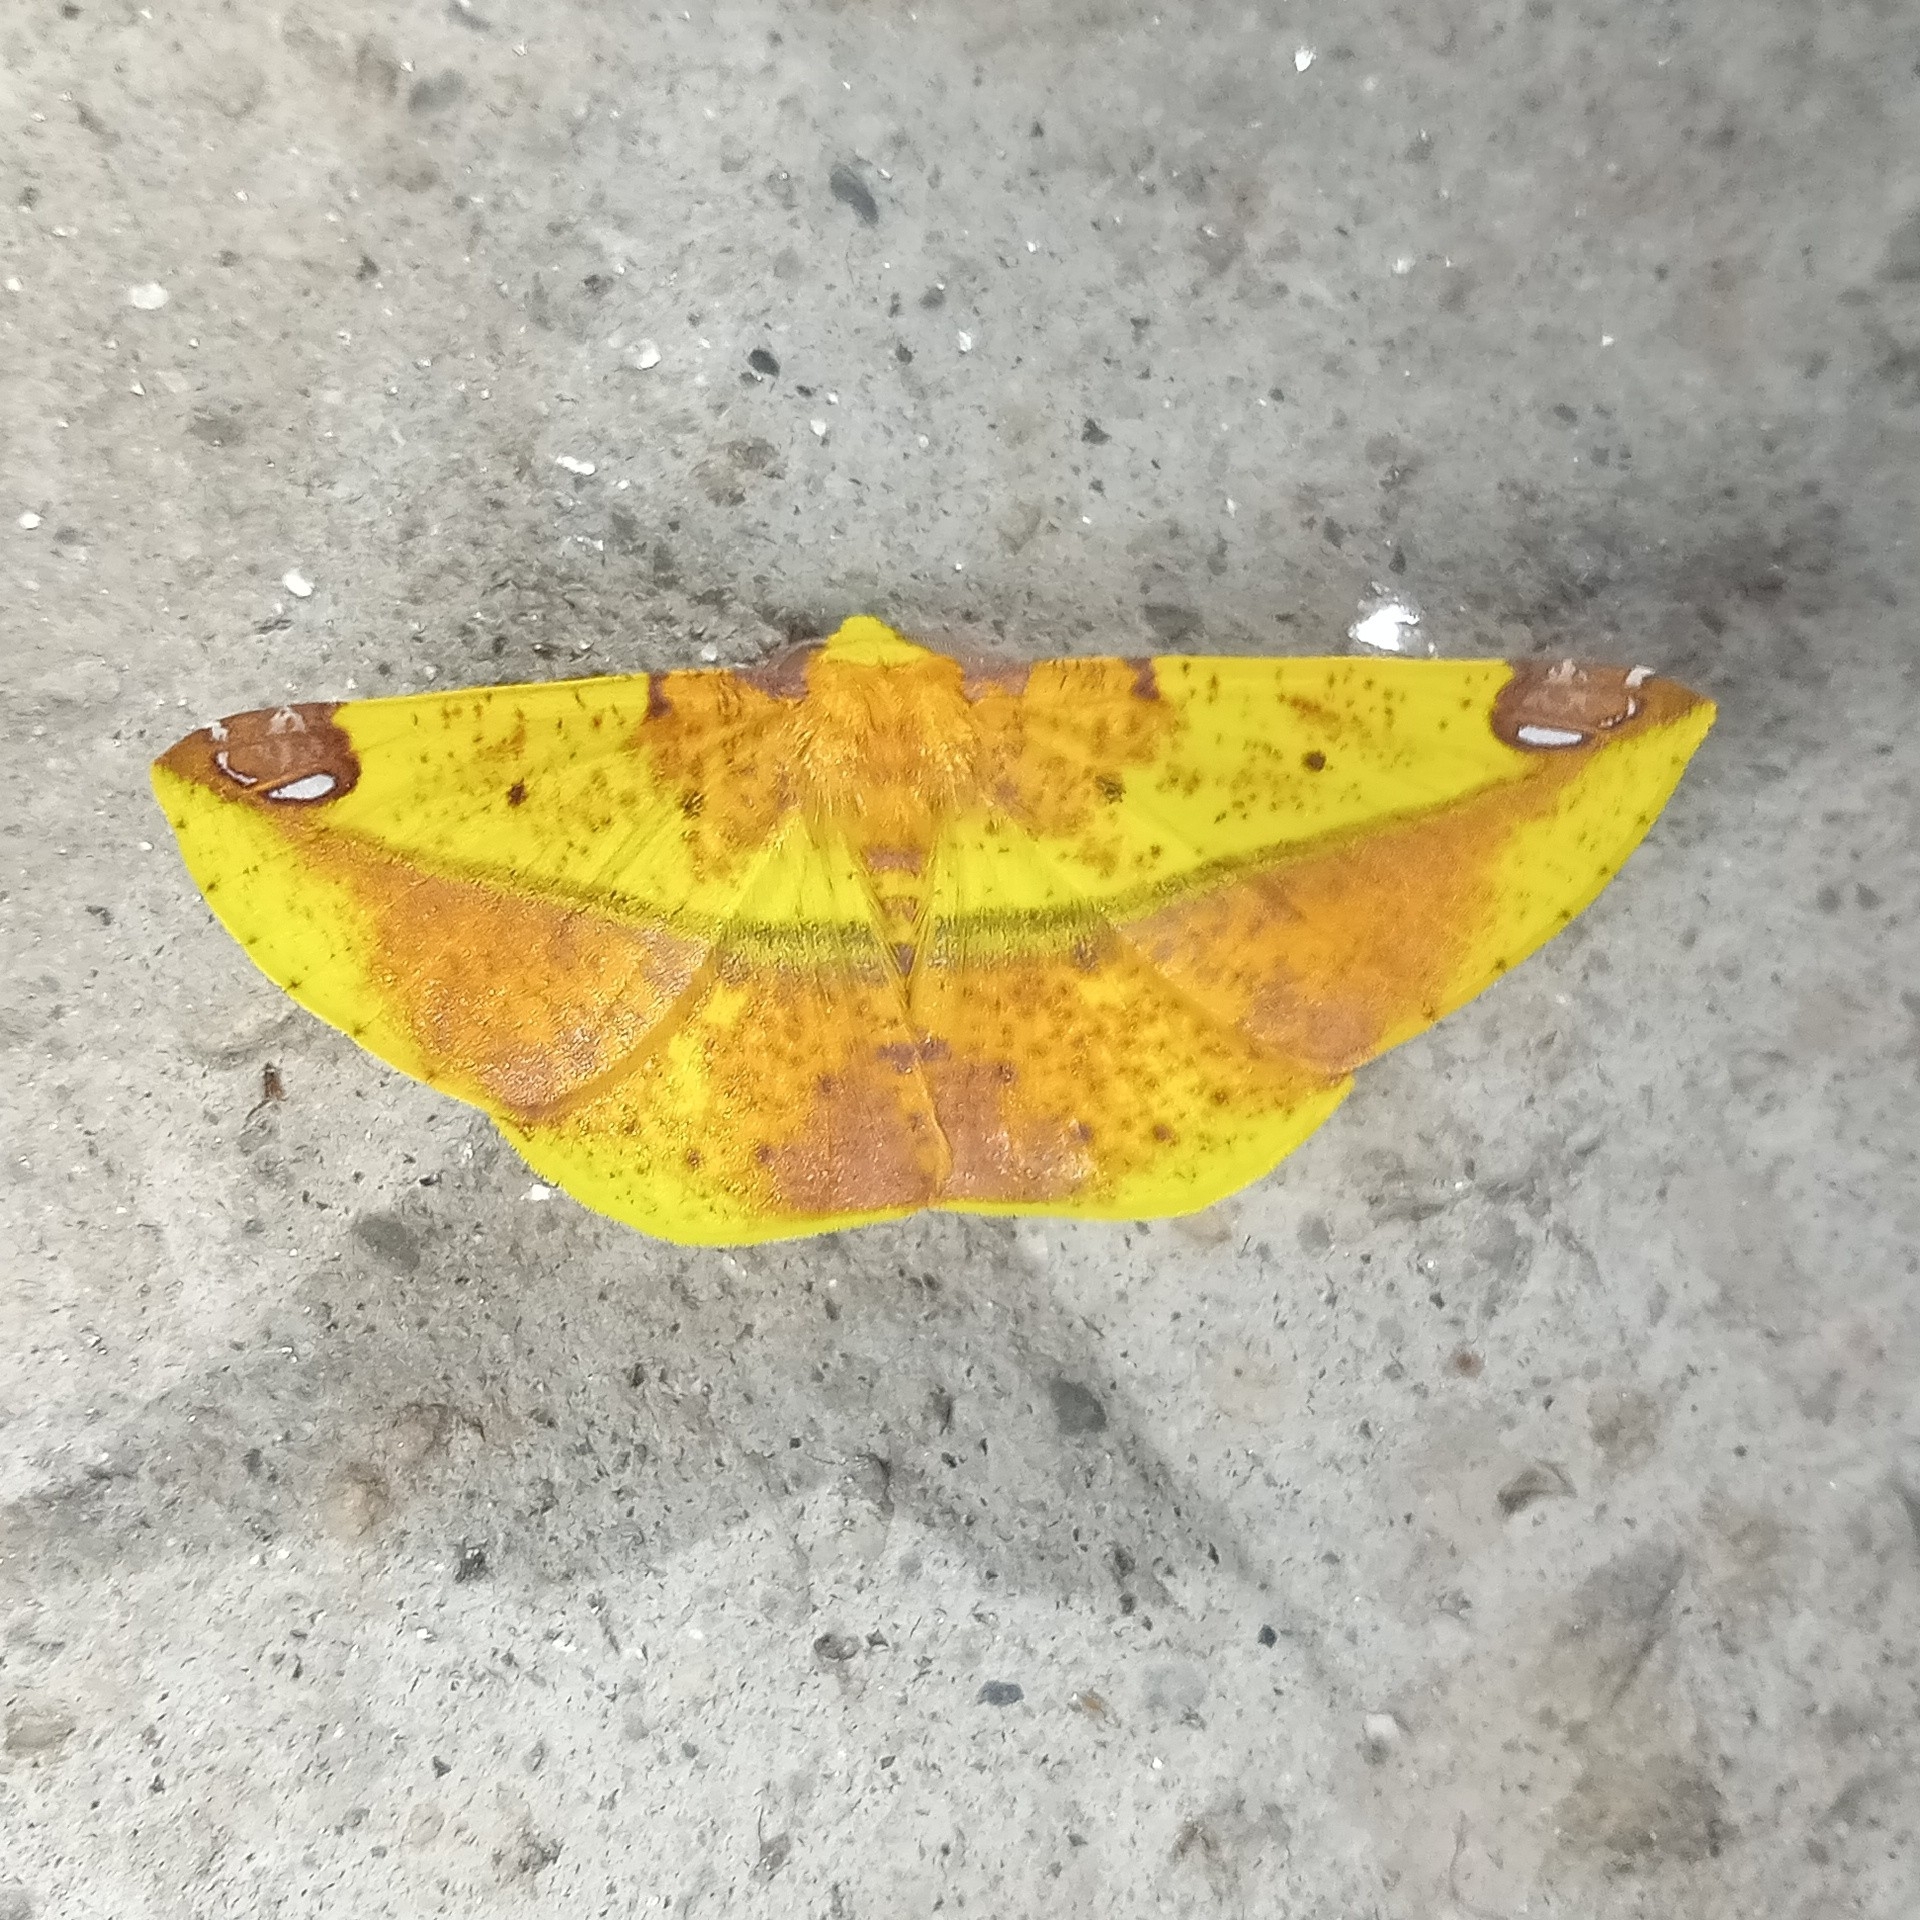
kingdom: Animalia
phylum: Arthropoda
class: Insecta
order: Lepidoptera
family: Geometridae
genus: Mimomiza
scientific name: Mimomiza cruentaria
